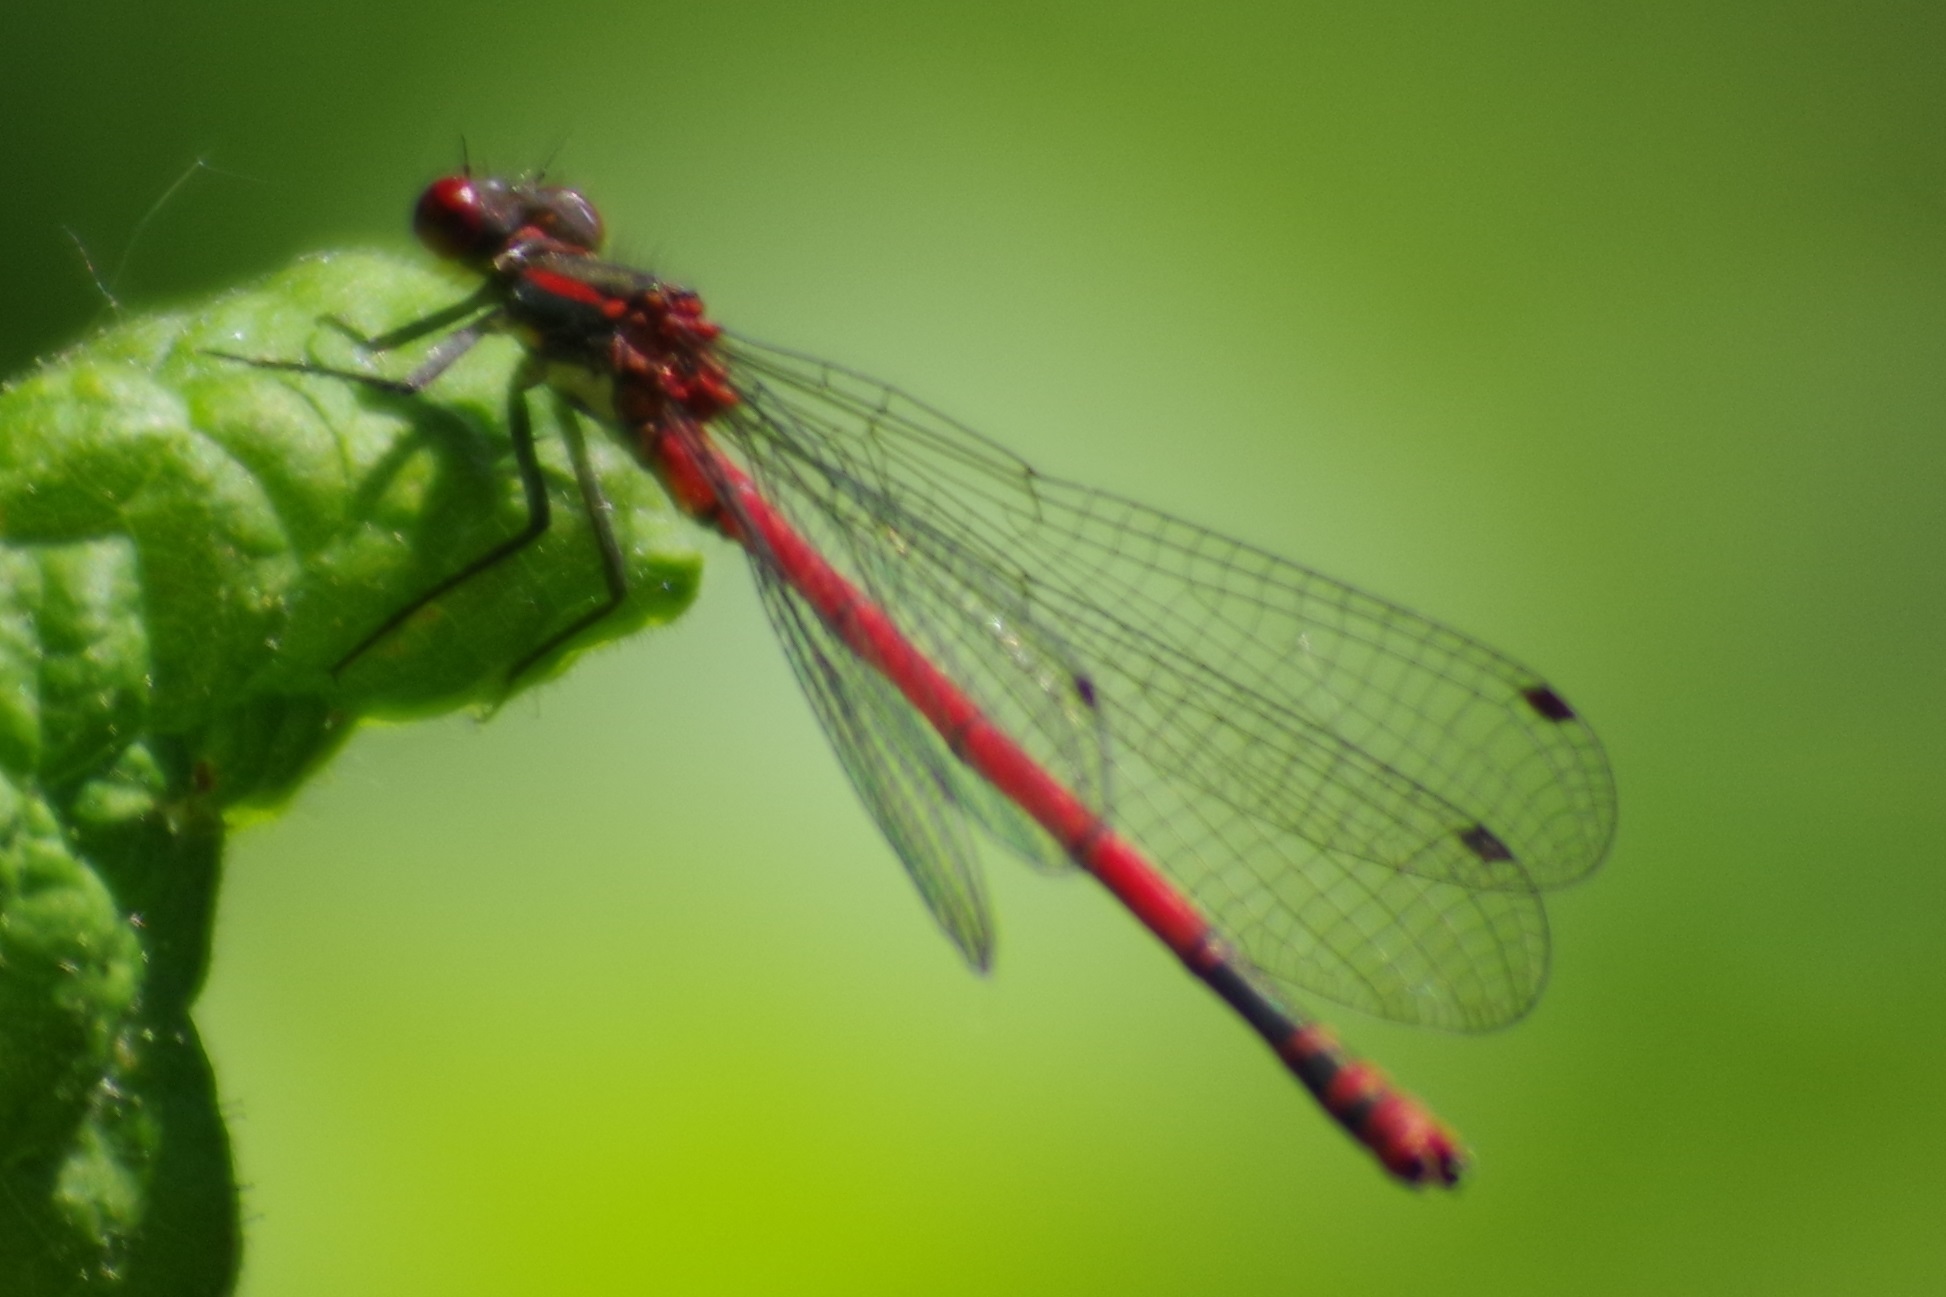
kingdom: Animalia
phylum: Arthropoda
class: Insecta
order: Odonata
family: Coenagrionidae
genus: Pyrrhosoma
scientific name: Pyrrhosoma nymphula
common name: Large red damsel
